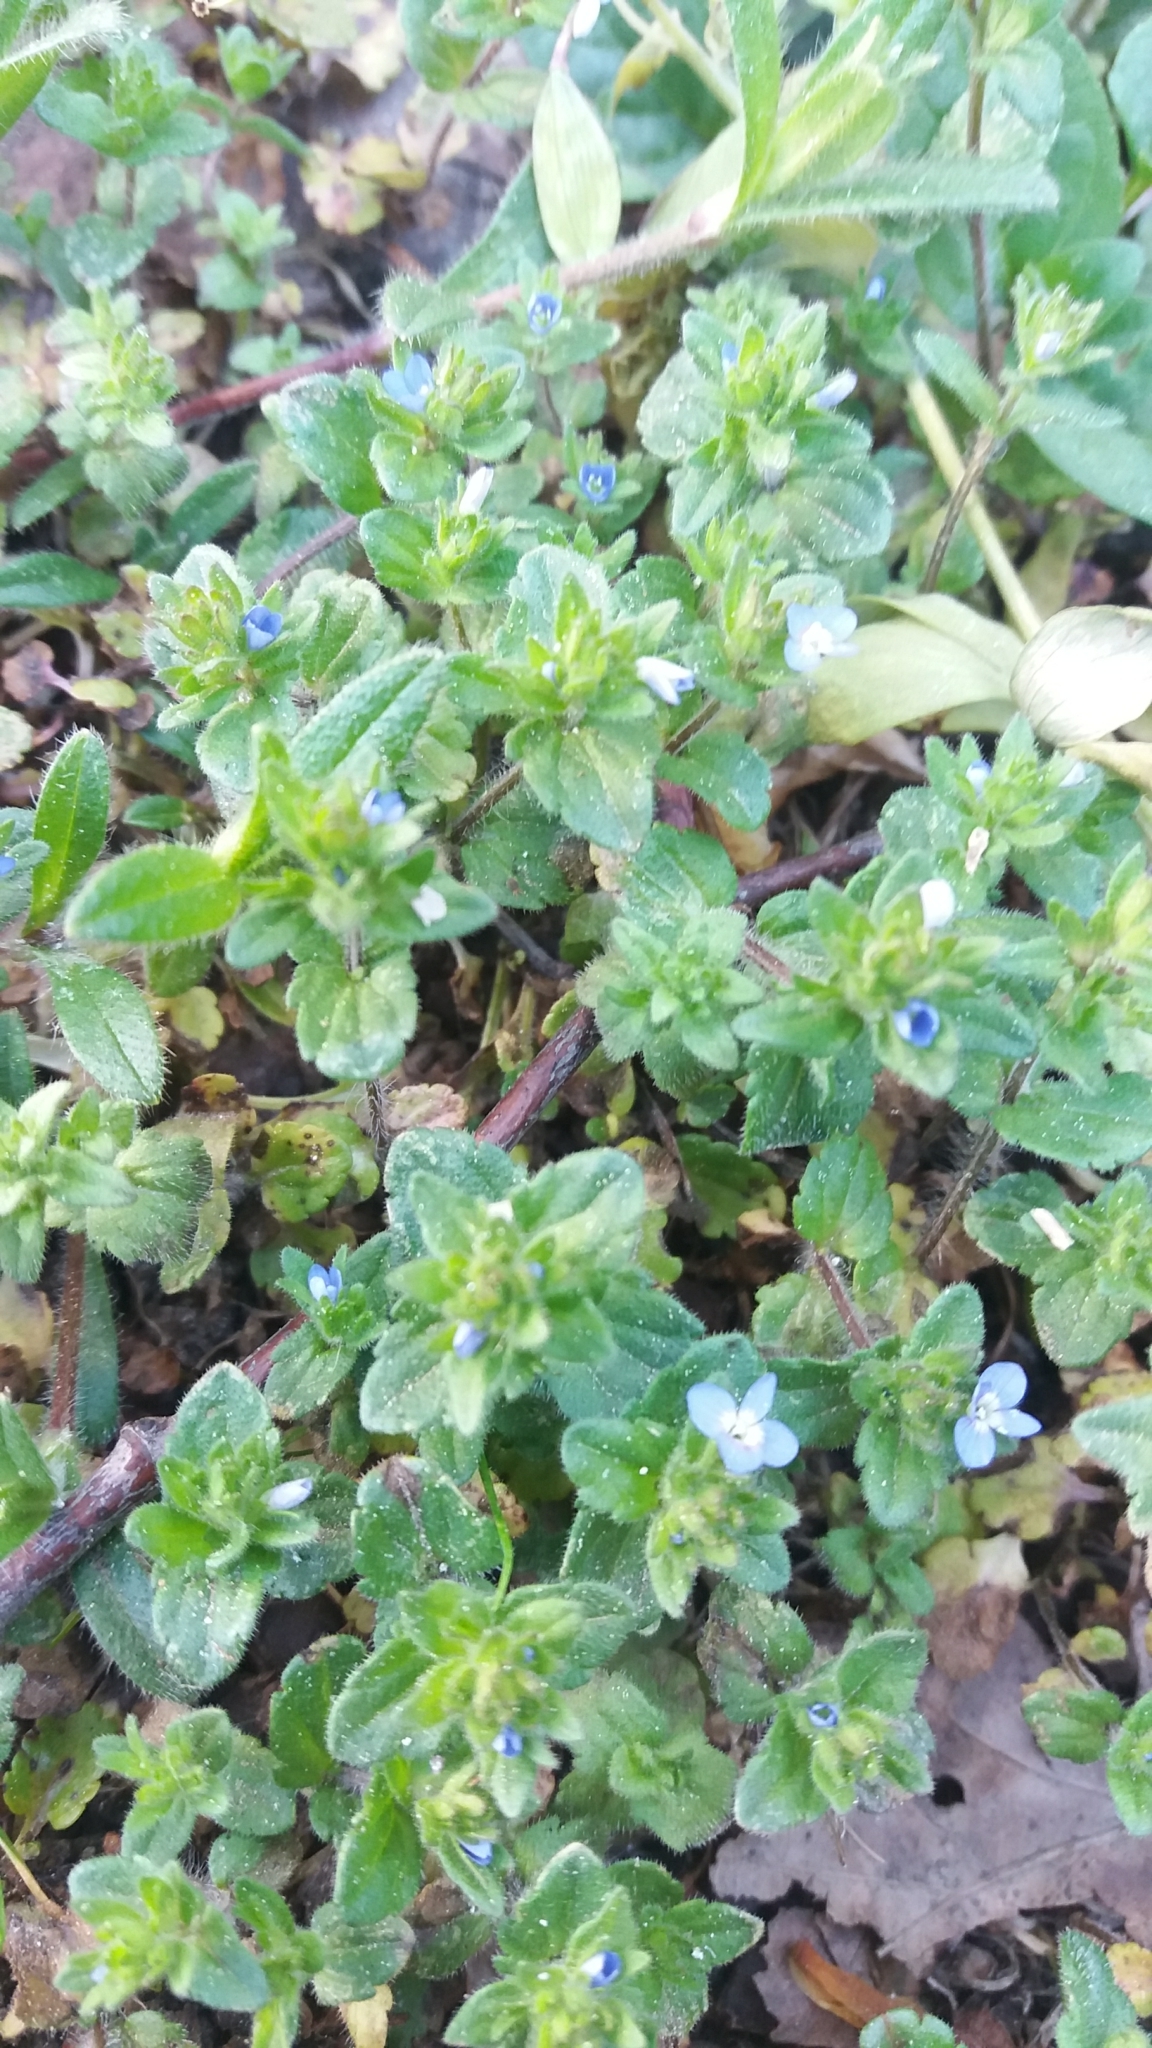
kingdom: Plantae
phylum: Tracheophyta
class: Magnoliopsida
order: Lamiales
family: Plantaginaceae
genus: Veronica
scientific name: Veronica arvensis
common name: Corn speedwell
